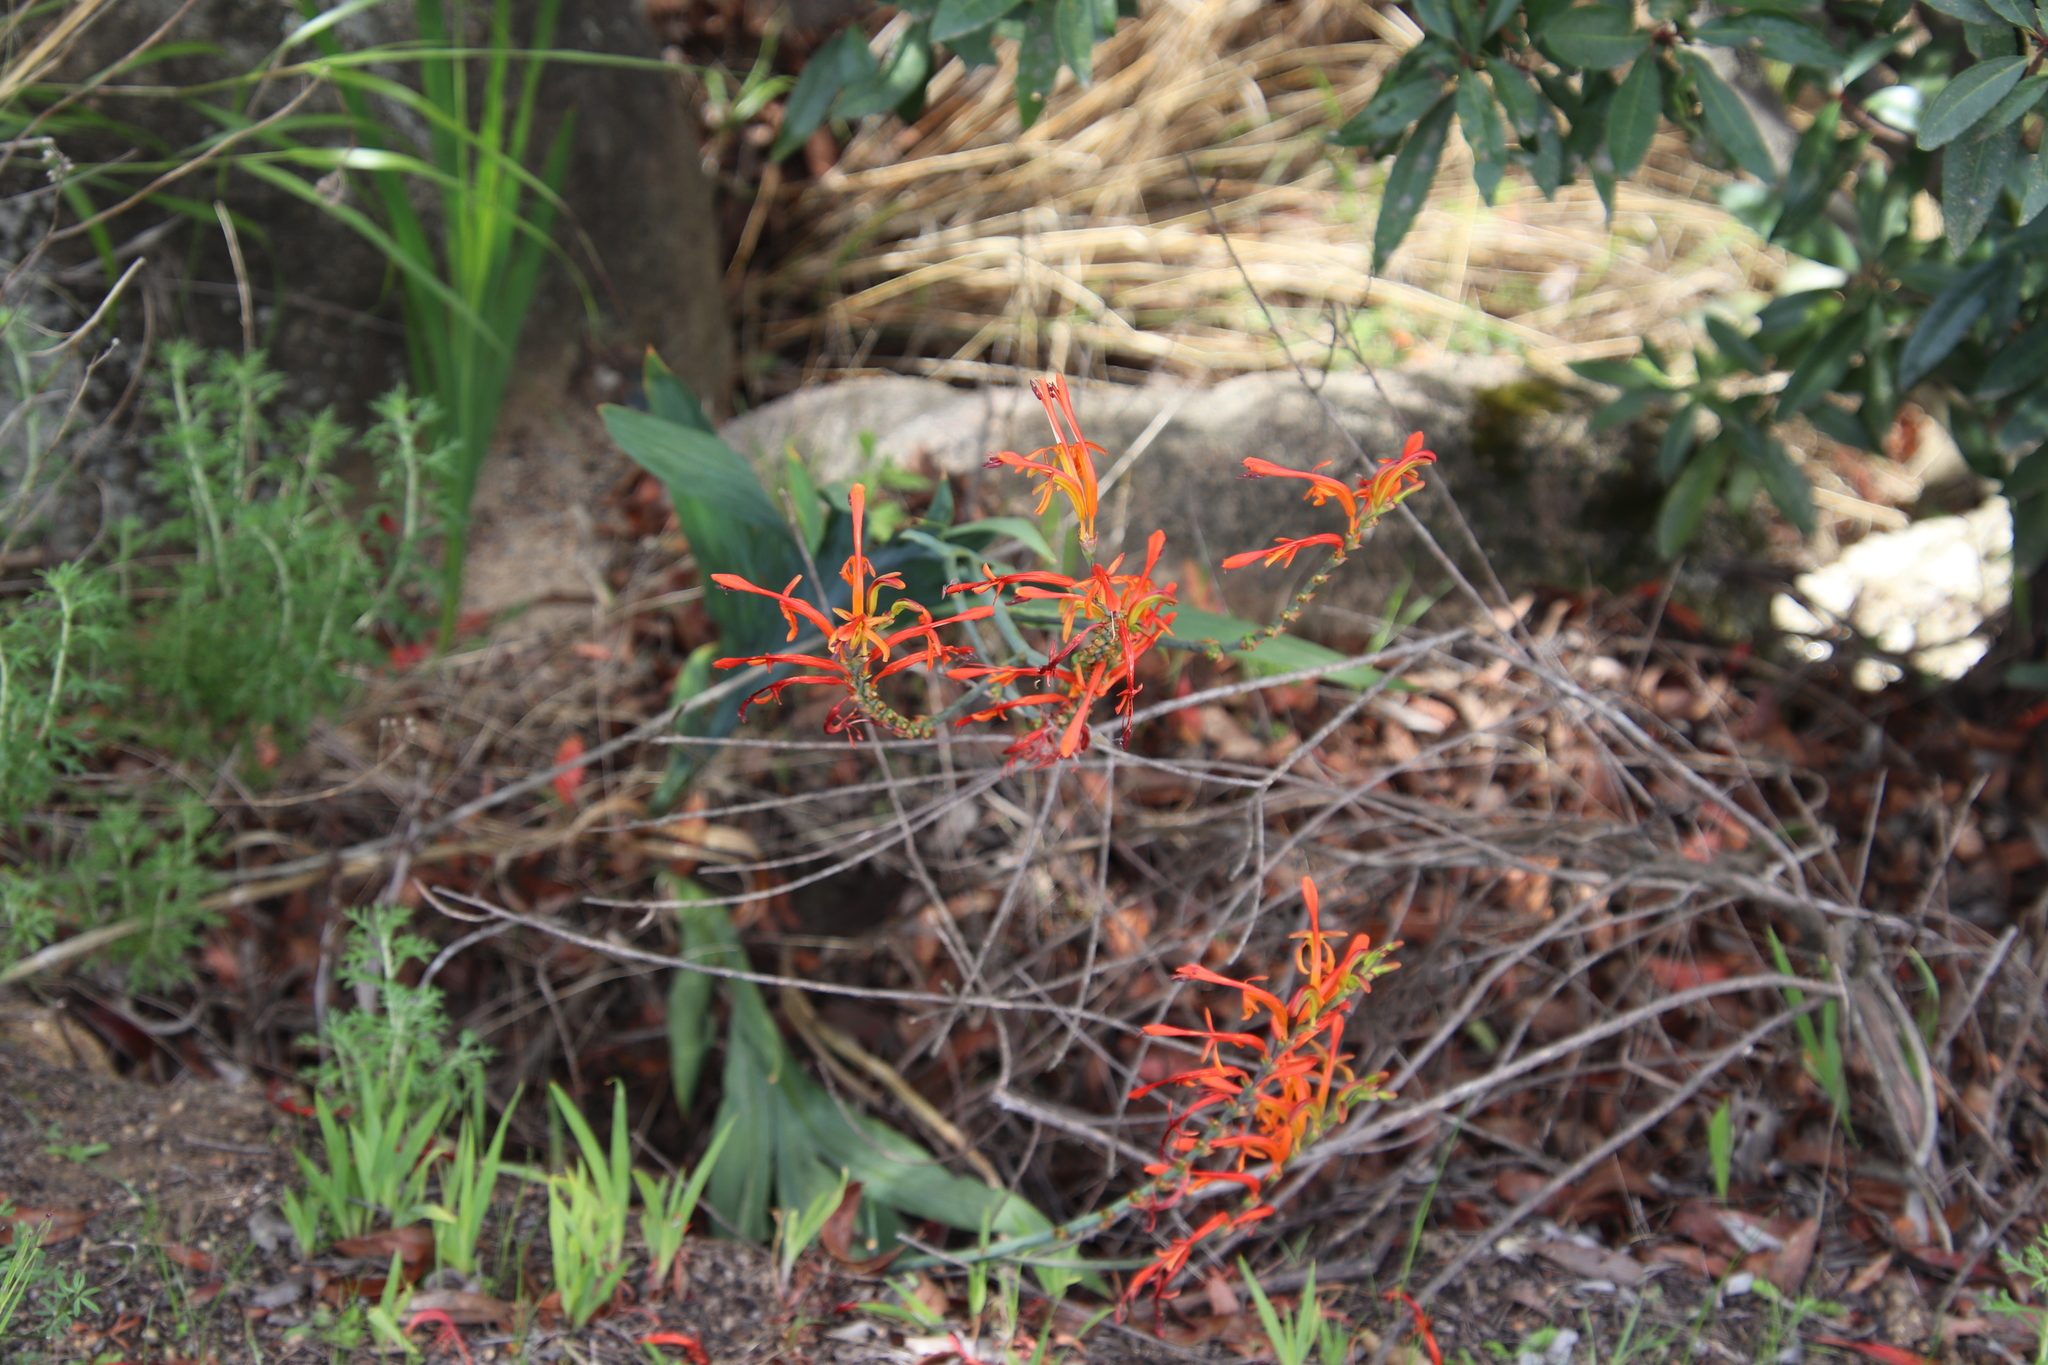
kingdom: Plantae
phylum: Tracheophyta
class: Liliopsida
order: Asparagales
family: Iridaceae
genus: Chasmanthe
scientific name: Chasmanthe floribunda
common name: African cornflag
